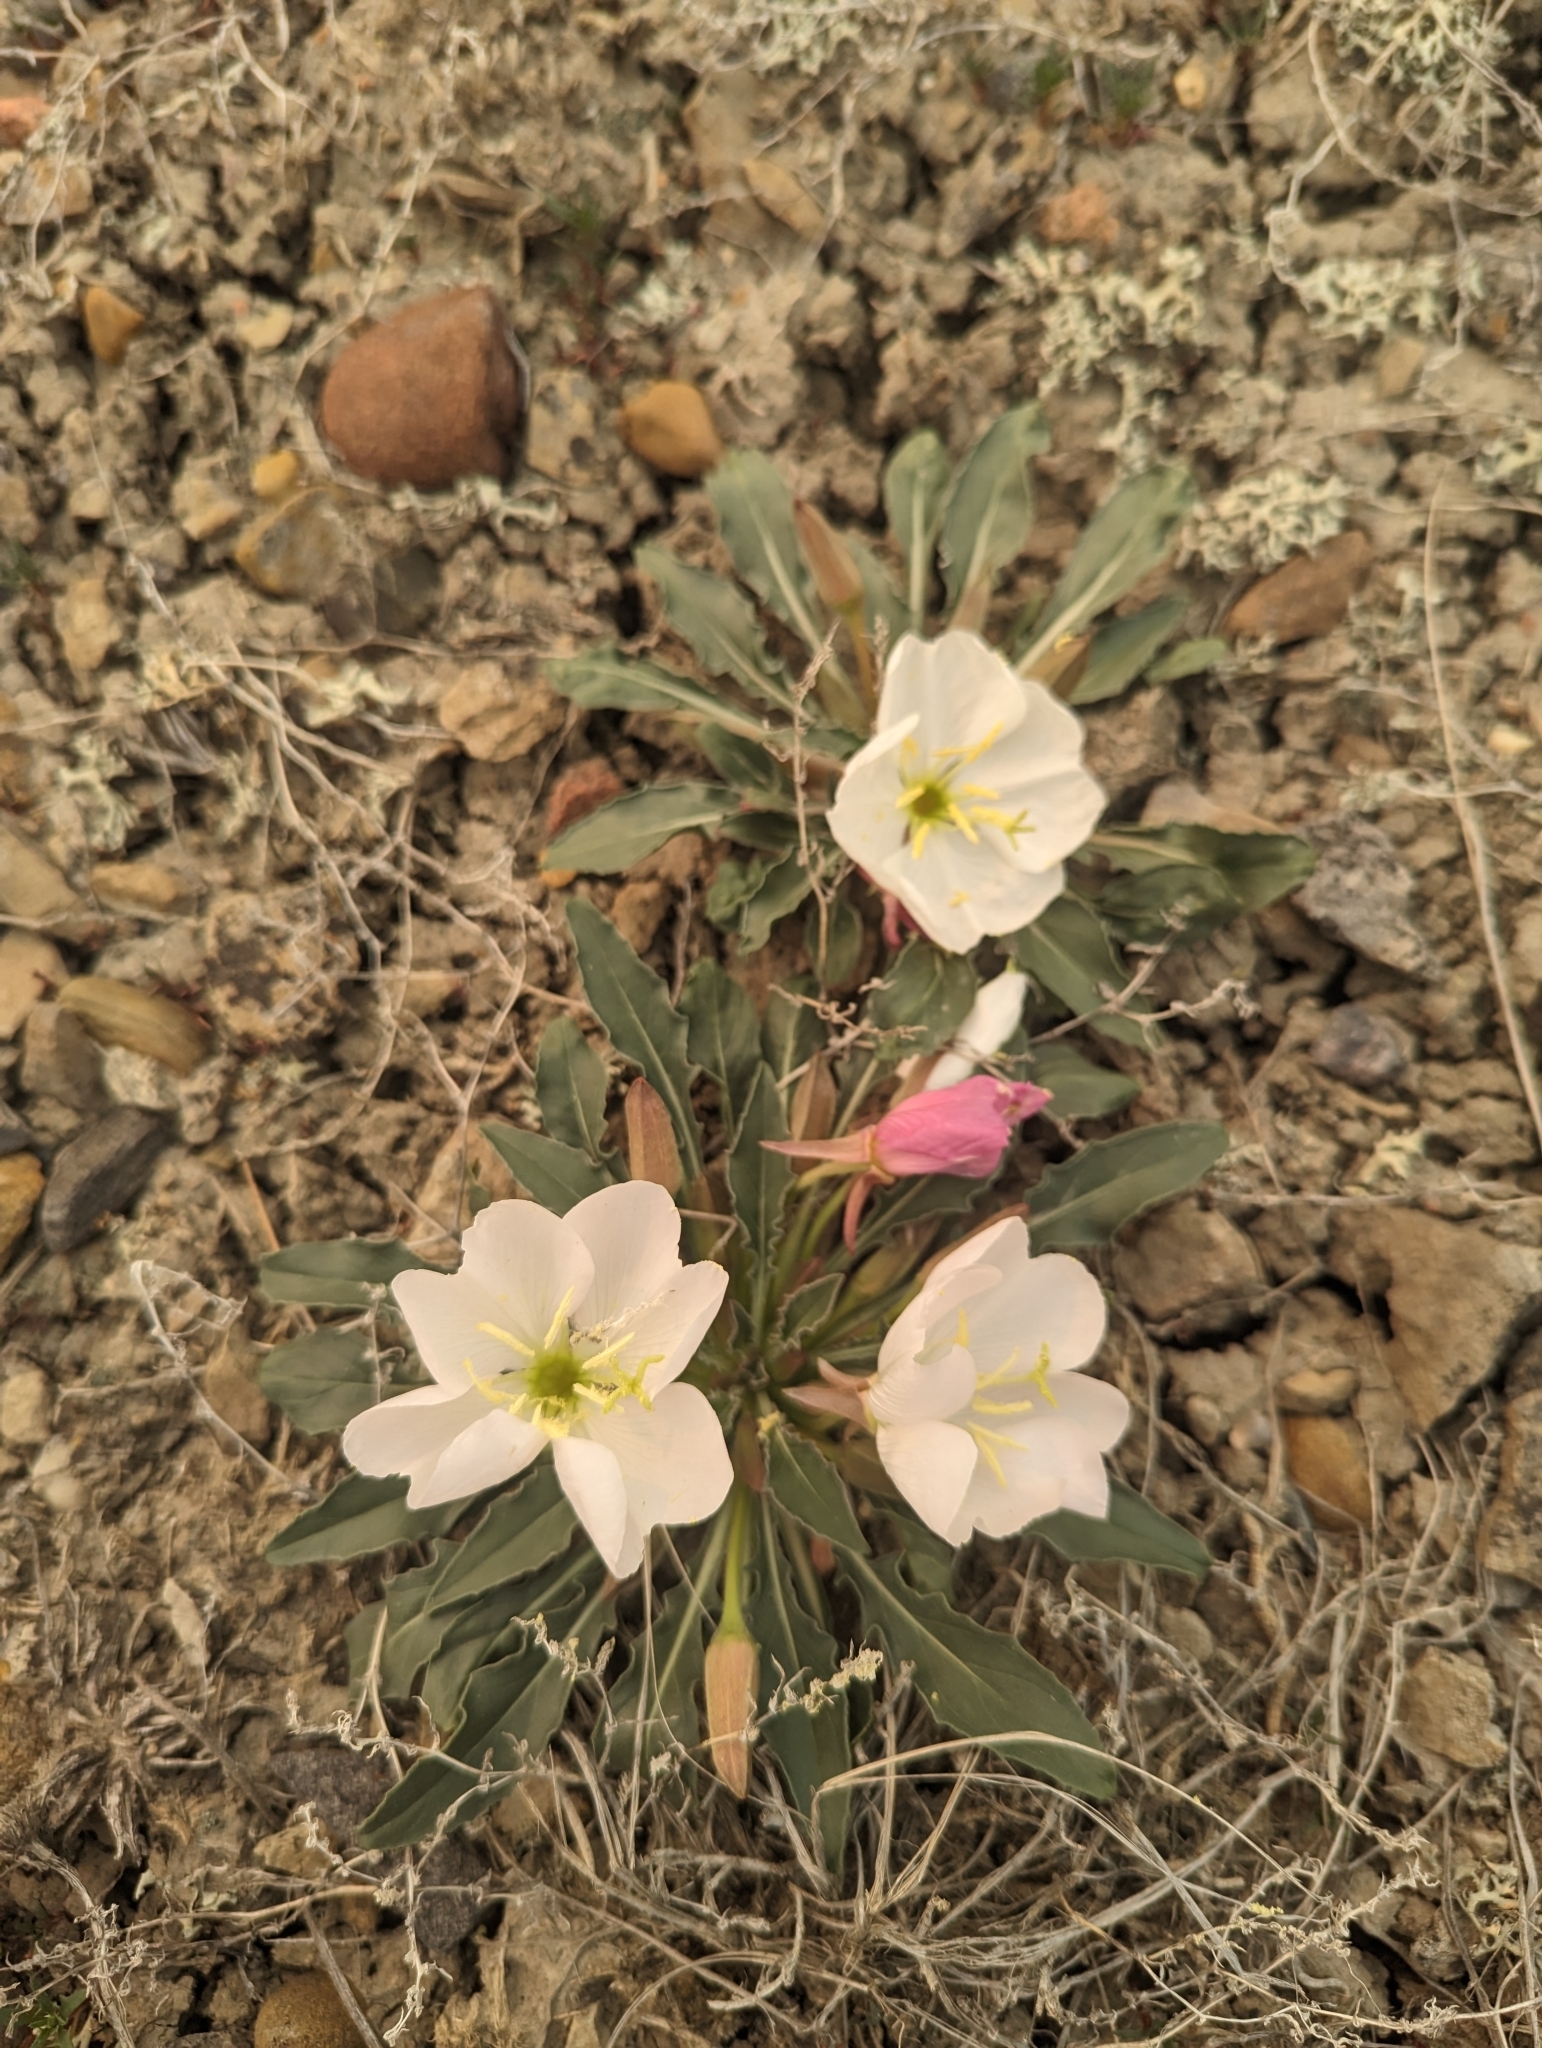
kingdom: Plantae
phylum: Tracheophyta
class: Magnoliopsida
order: Myrtales
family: Onagraceae
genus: Oenothera
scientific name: Oenothera cespitosa
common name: Tufted evening-primrose
